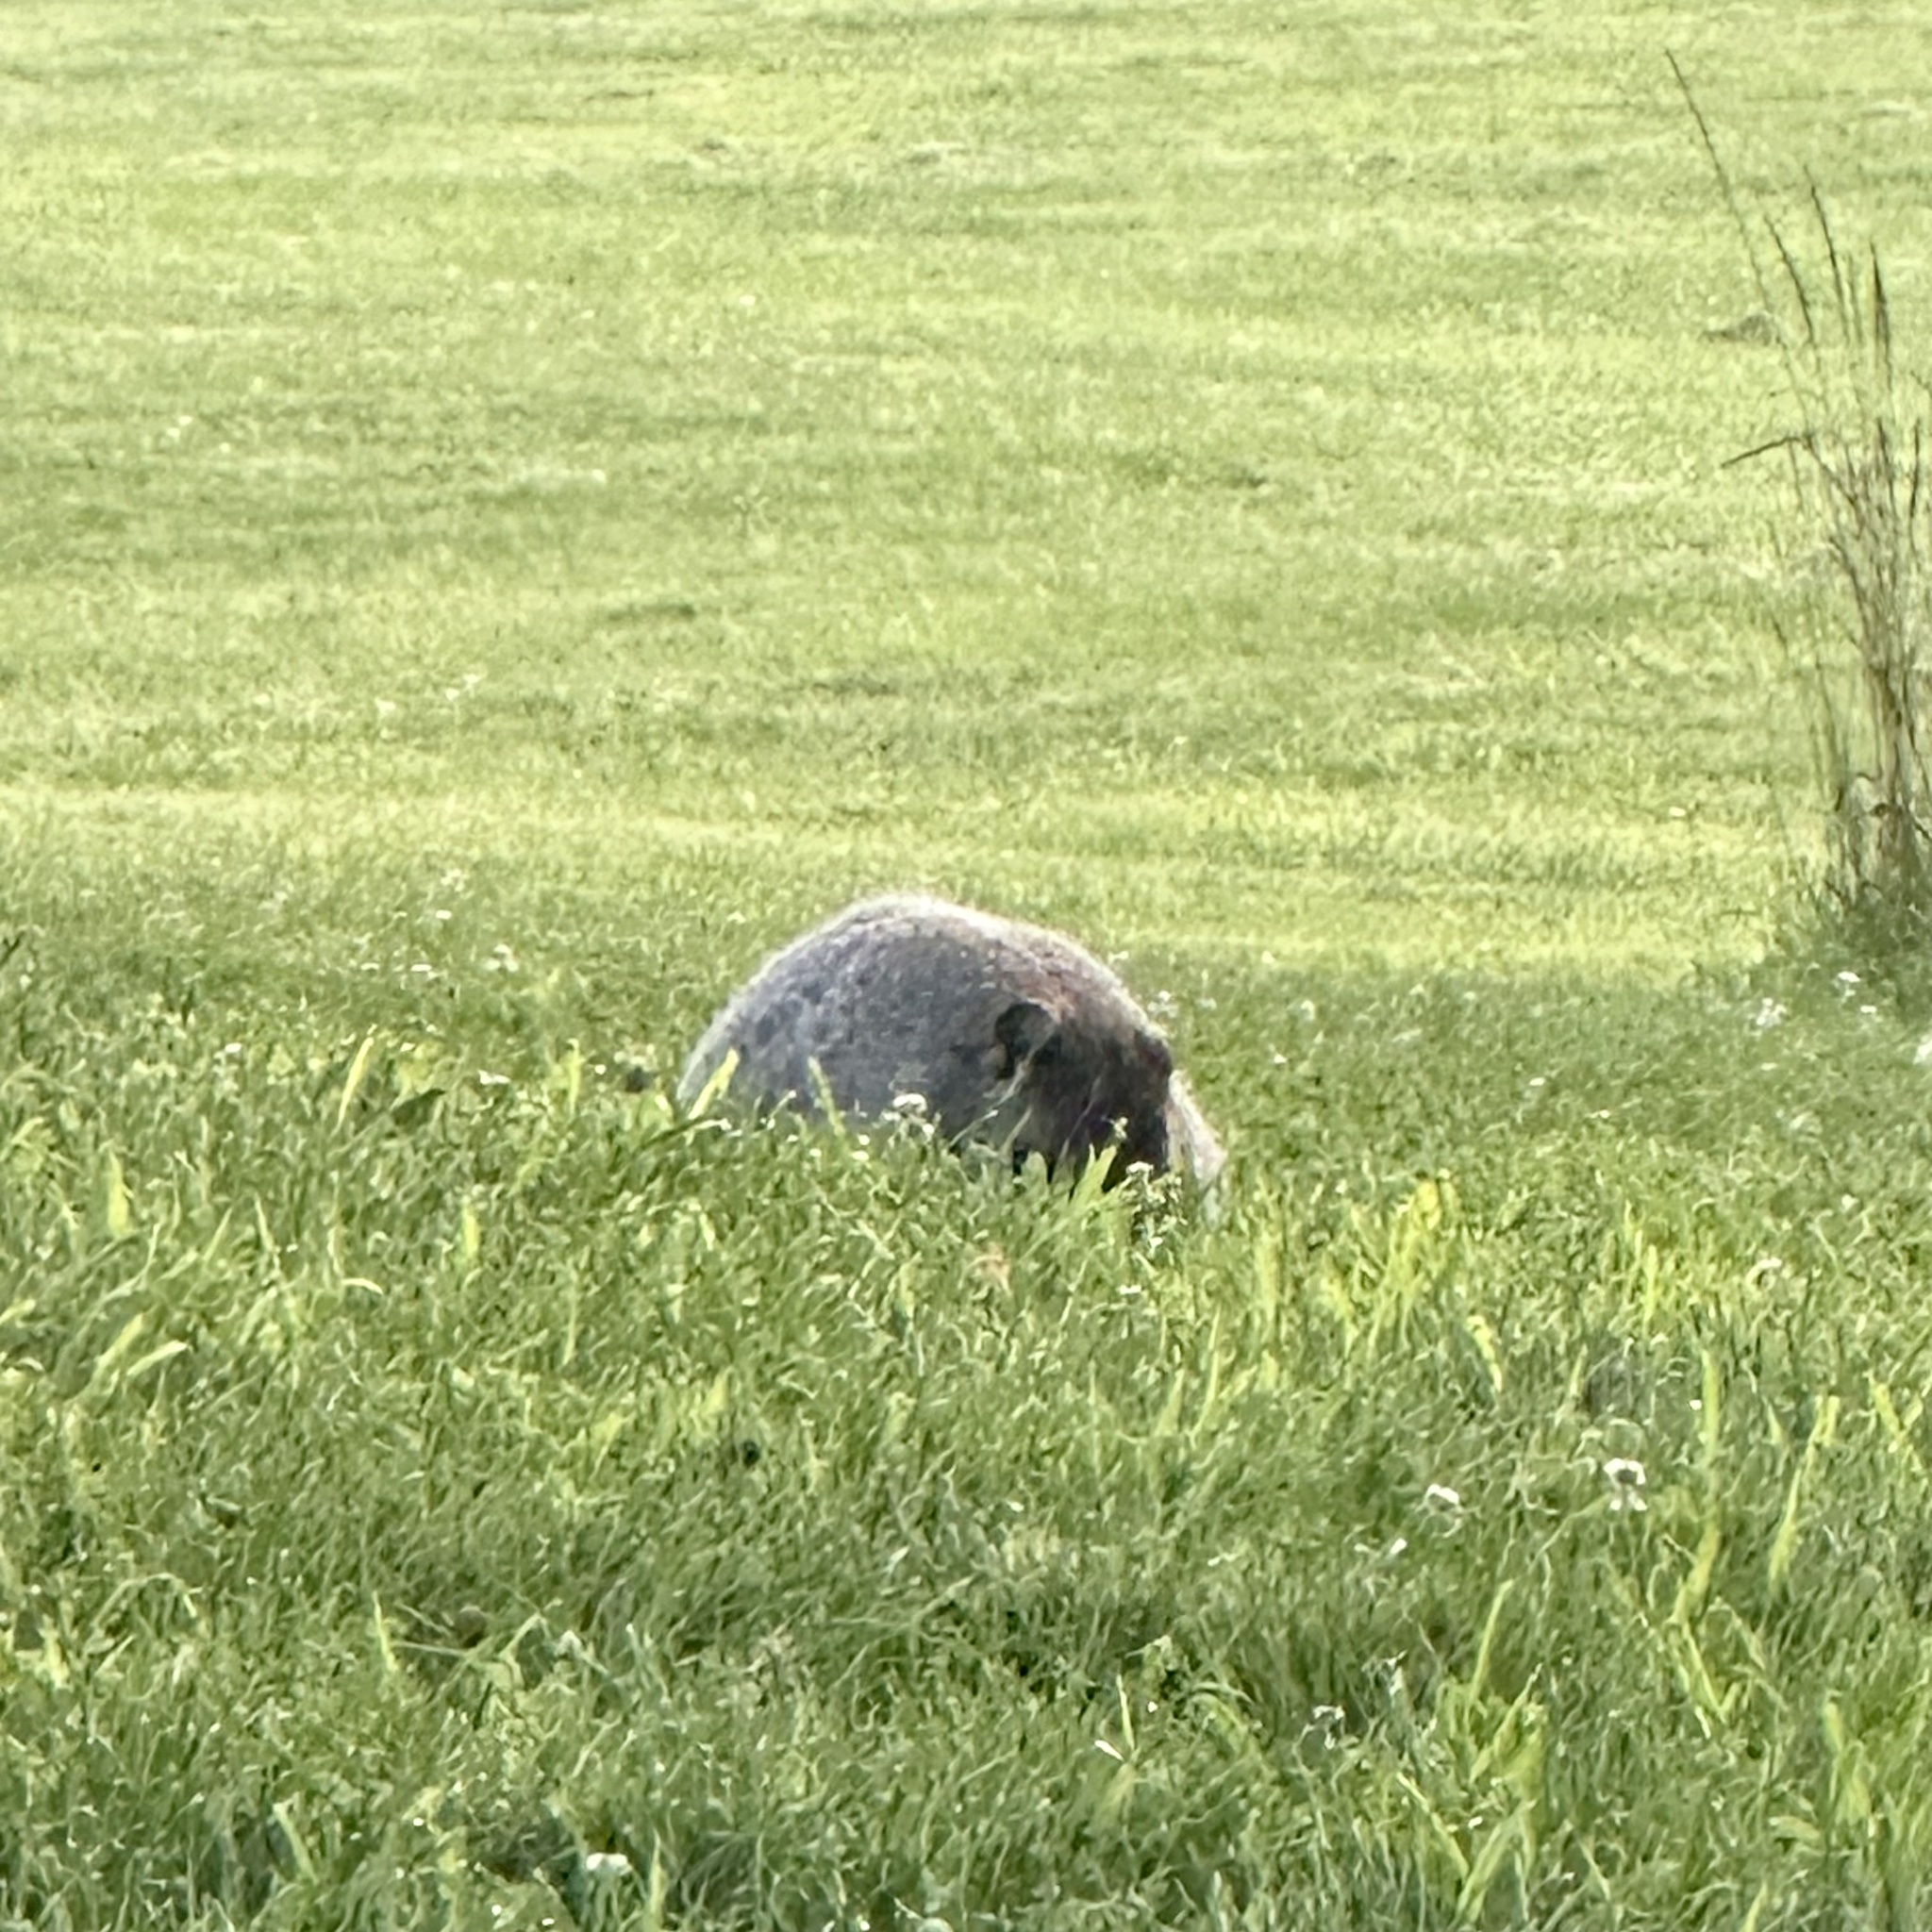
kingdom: Animalia
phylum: Chordata
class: Mammalia
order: Rodentia
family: Sciuridae
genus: Marmota
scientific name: Marmota monax
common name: Groundhog
